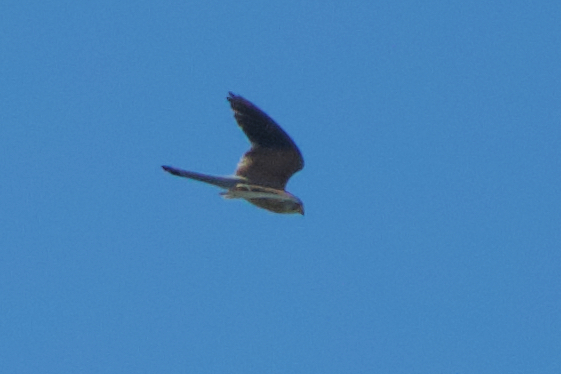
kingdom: Animalia
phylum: Chordata
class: Aves
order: Falconiformes
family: Falconidae
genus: Falco
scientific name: Falco tinnunculus
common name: Common kestrel
